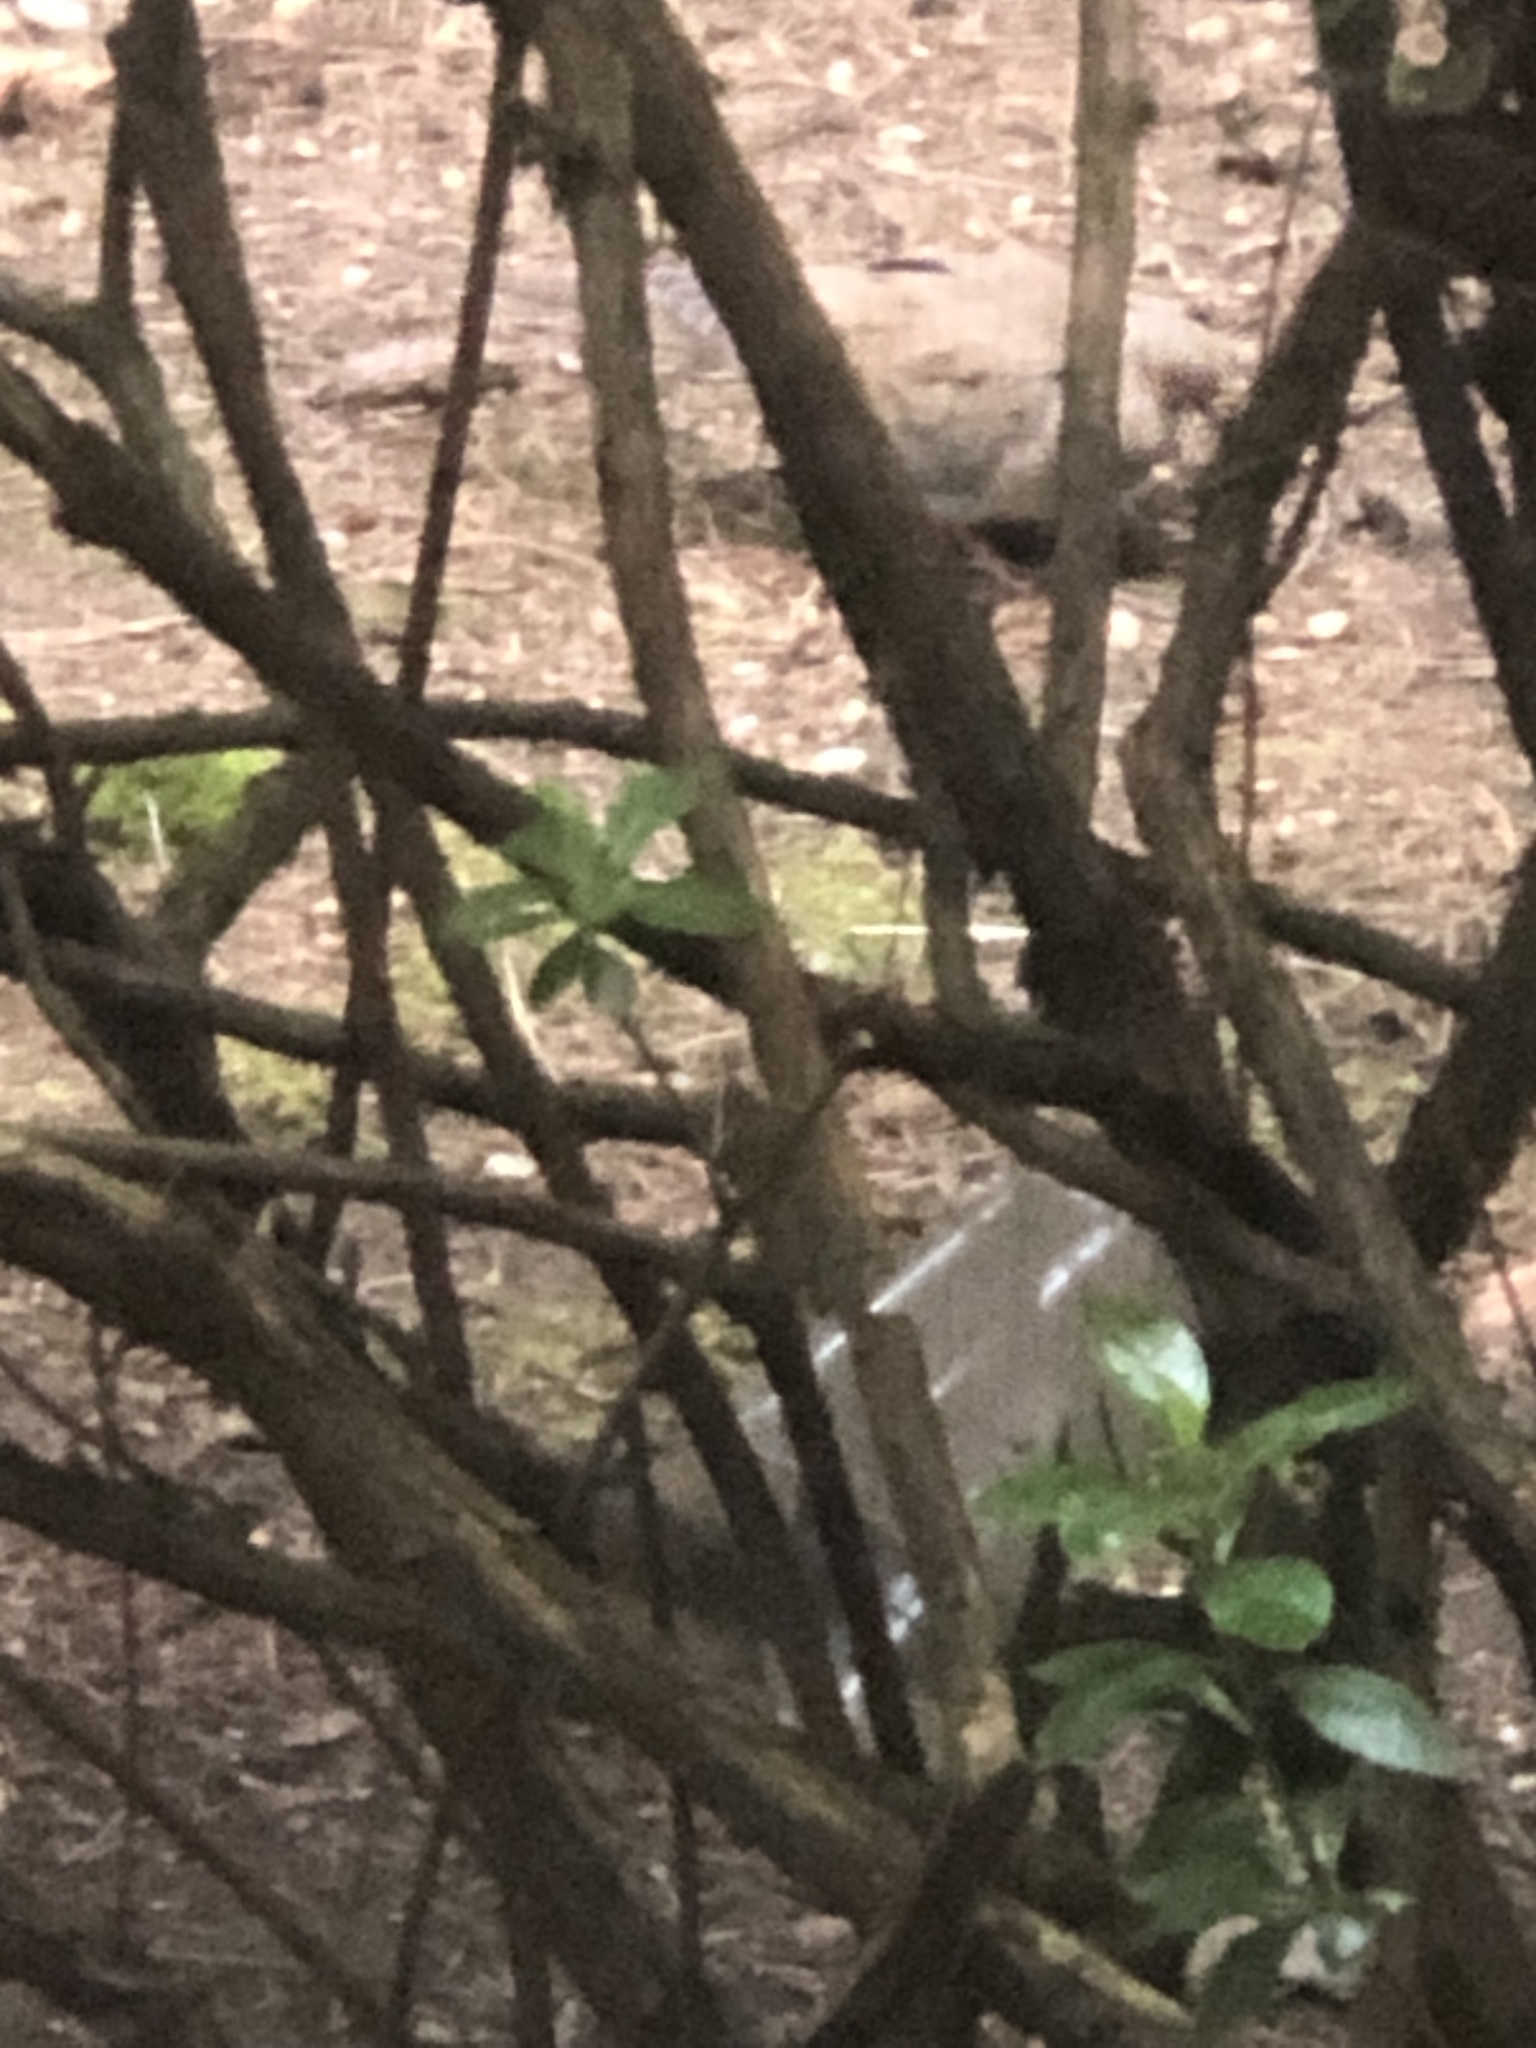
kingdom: Animalia
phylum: Chordata
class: Aves
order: Columbiformes
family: Columbidae
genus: Zenaida
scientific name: Zenaida macroura
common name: Mourning dove
